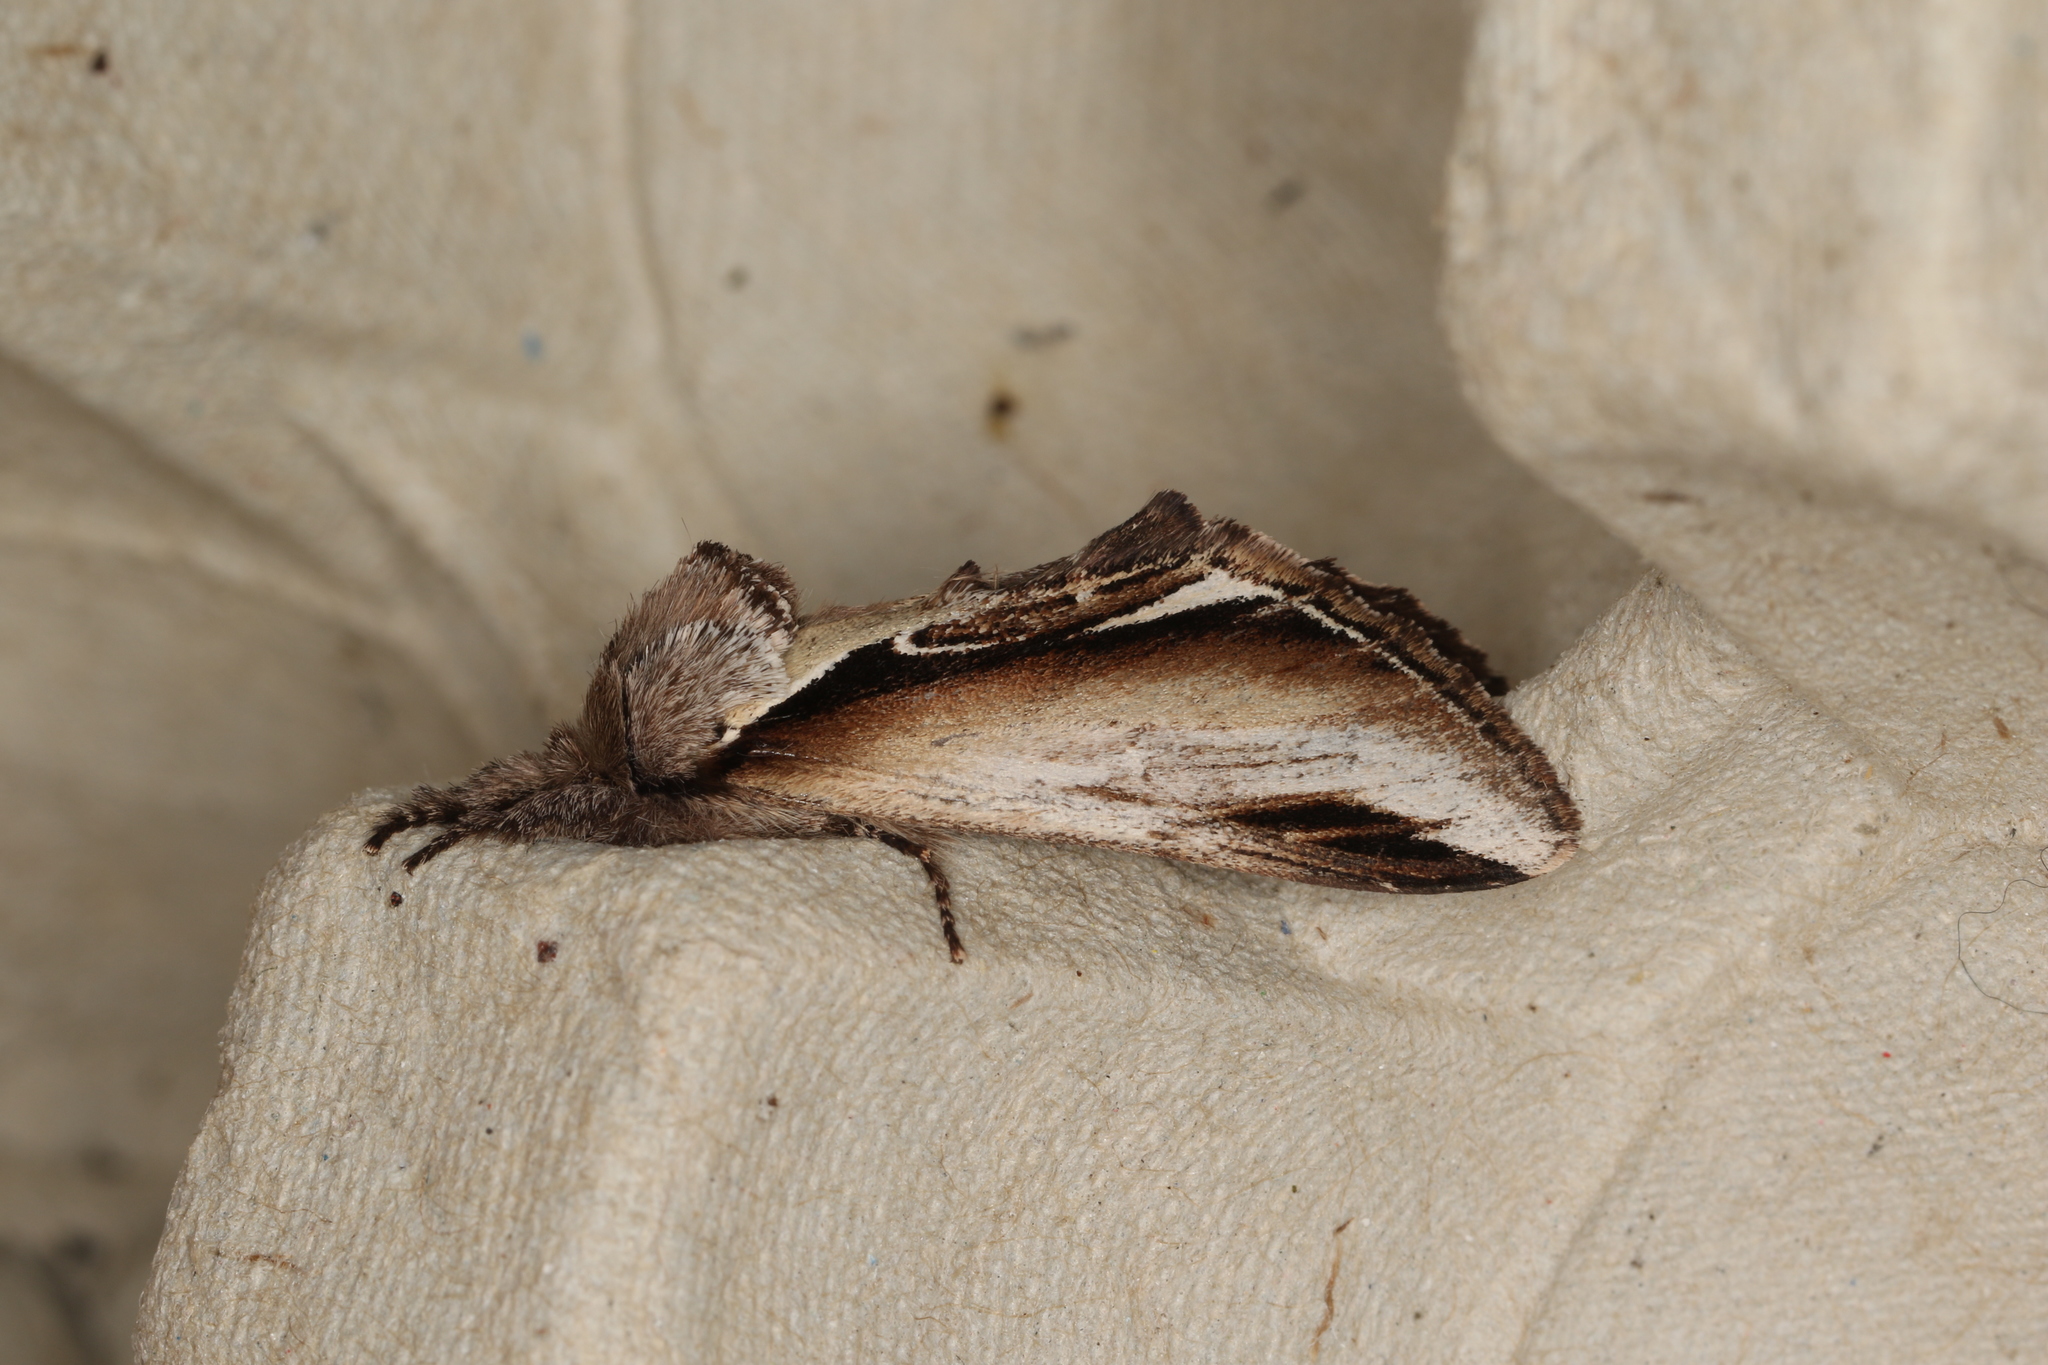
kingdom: Animalia
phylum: Arthropoda
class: Insecta
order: Lepidoptera
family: Notodontidae
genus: Pheosia
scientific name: Pheosia gnoma
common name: Lesser swallow prominent
